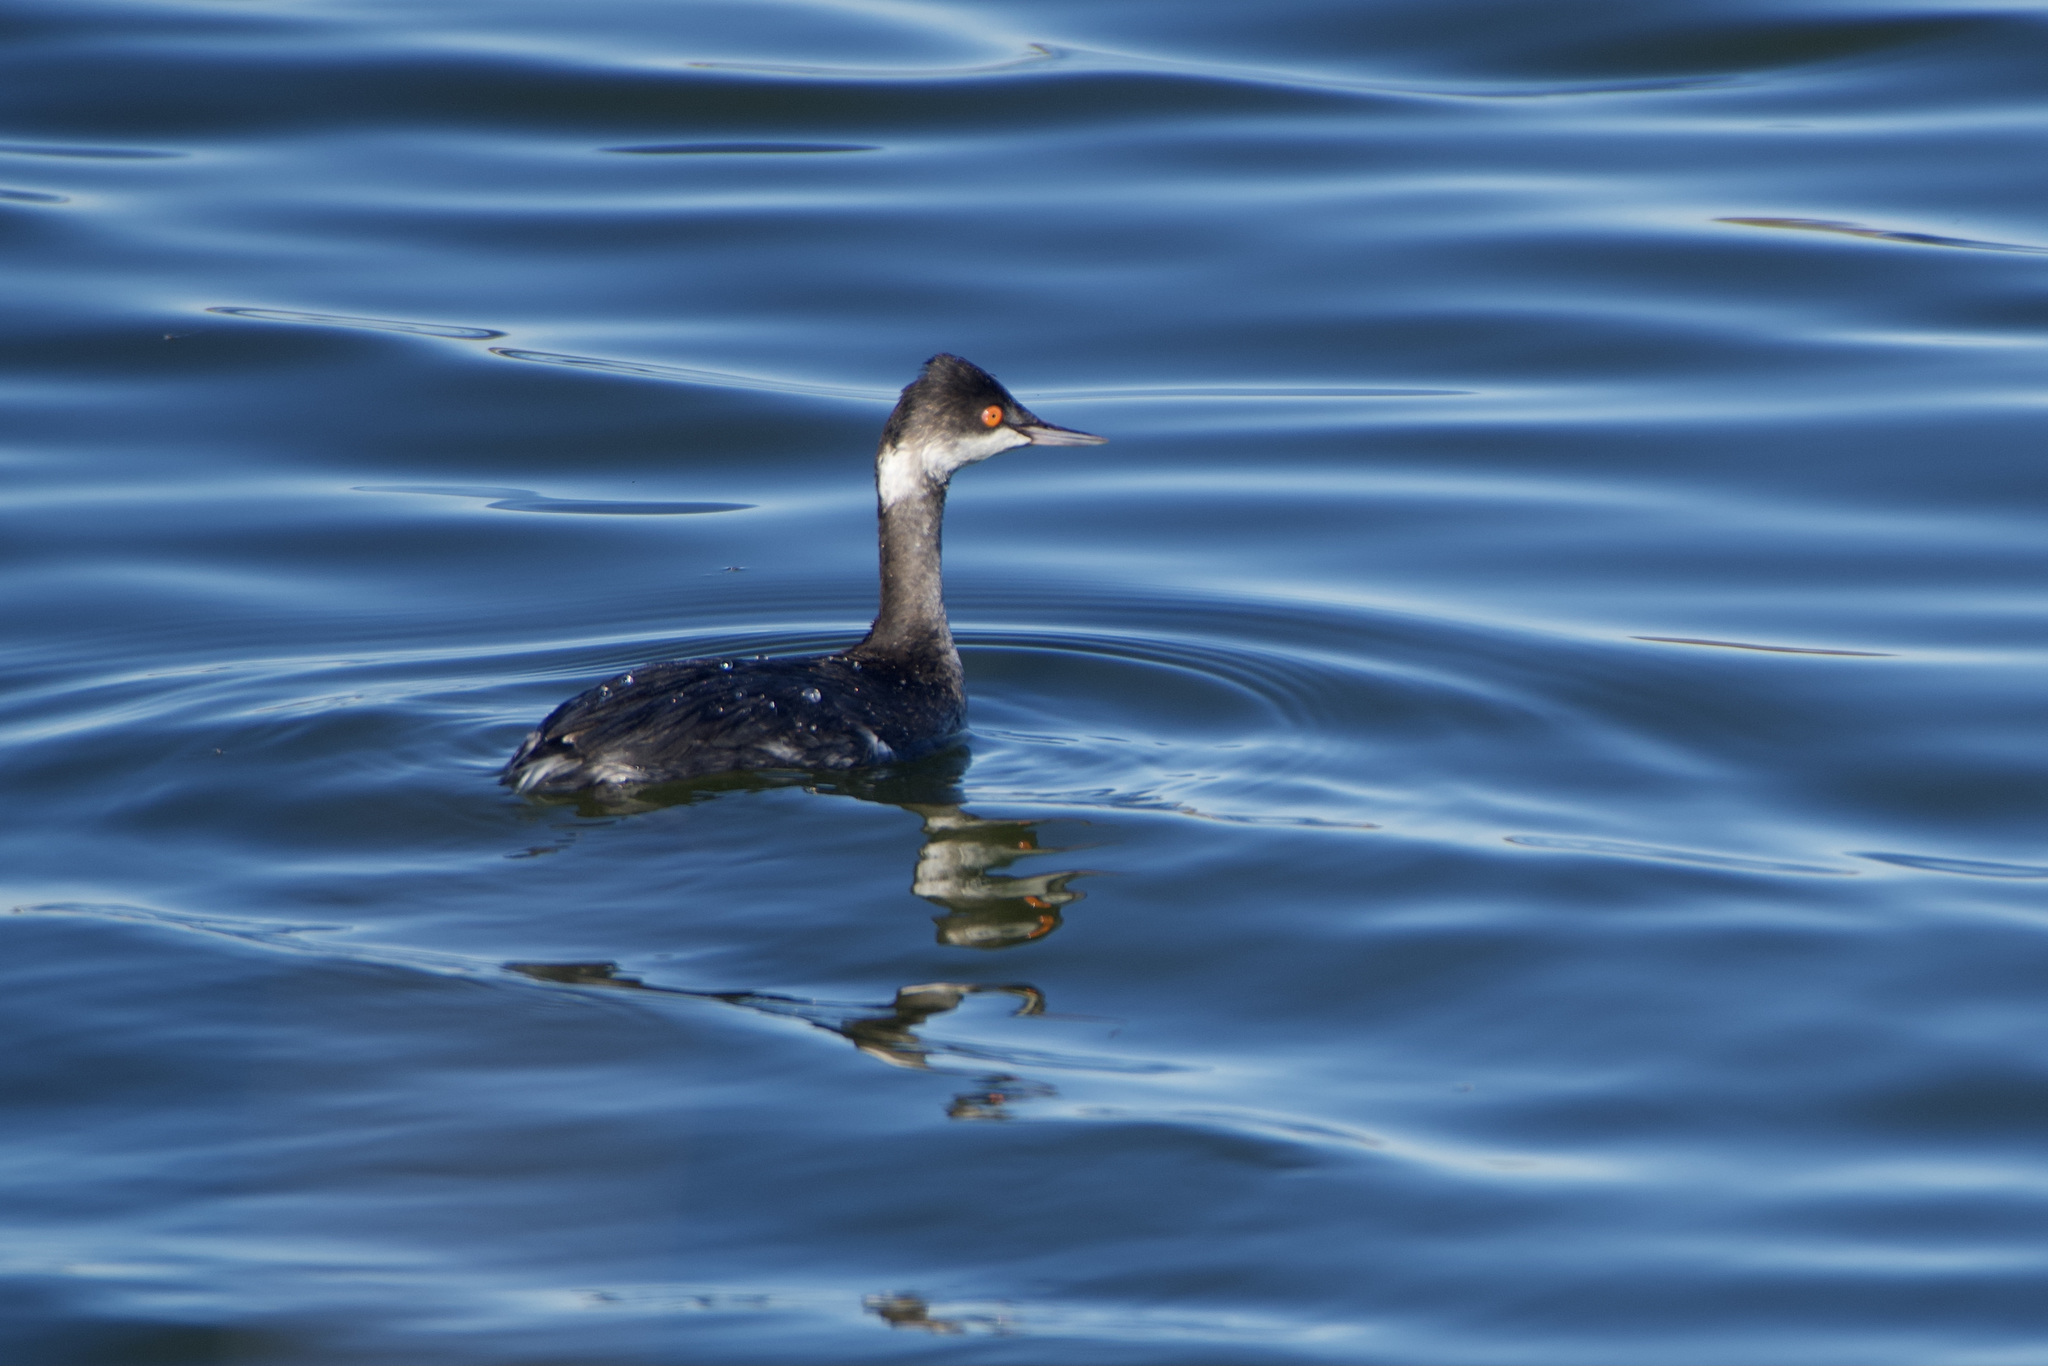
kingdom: Animalia
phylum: Chordata
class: Aves
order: Podicipediformes
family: Podicipedidae
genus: Podiceps
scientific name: Podiceps nigricollis
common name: Black-necked grebe
